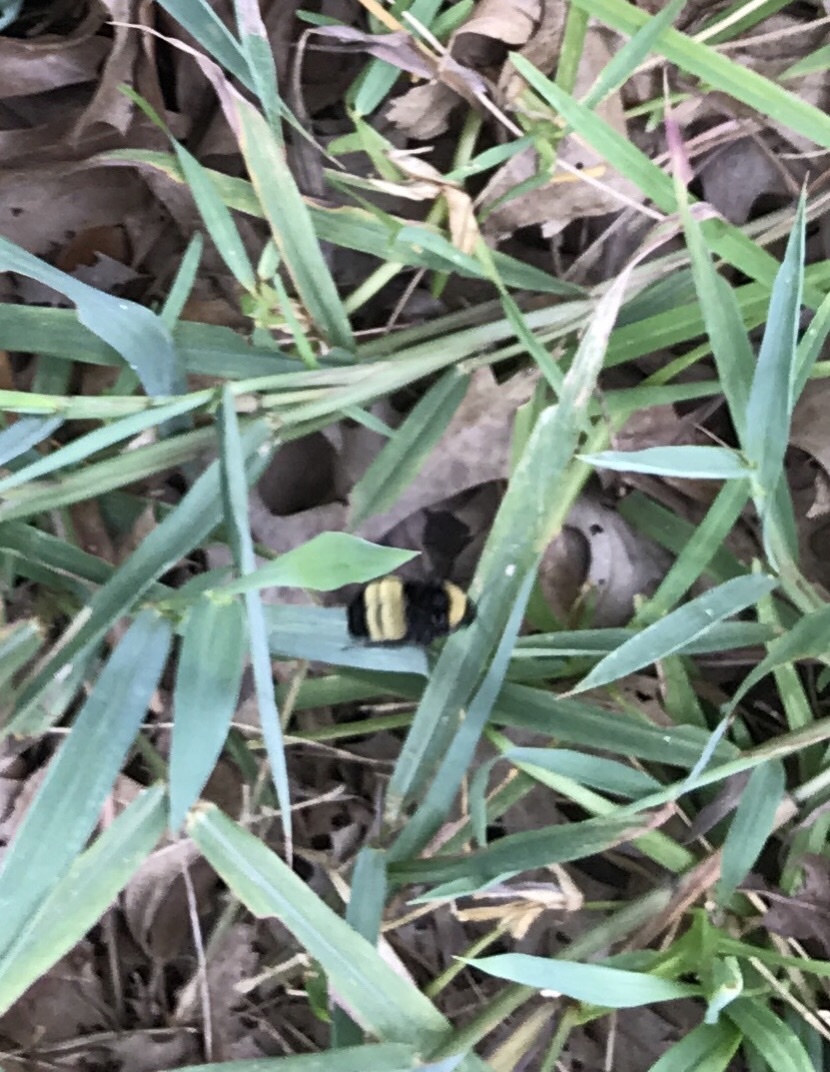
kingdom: Animalia
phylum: Arthropoda
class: Insecta
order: Hymenoptera
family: Apidae
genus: Bombus
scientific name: Bombus pensylvanicus
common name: Bumble bee
